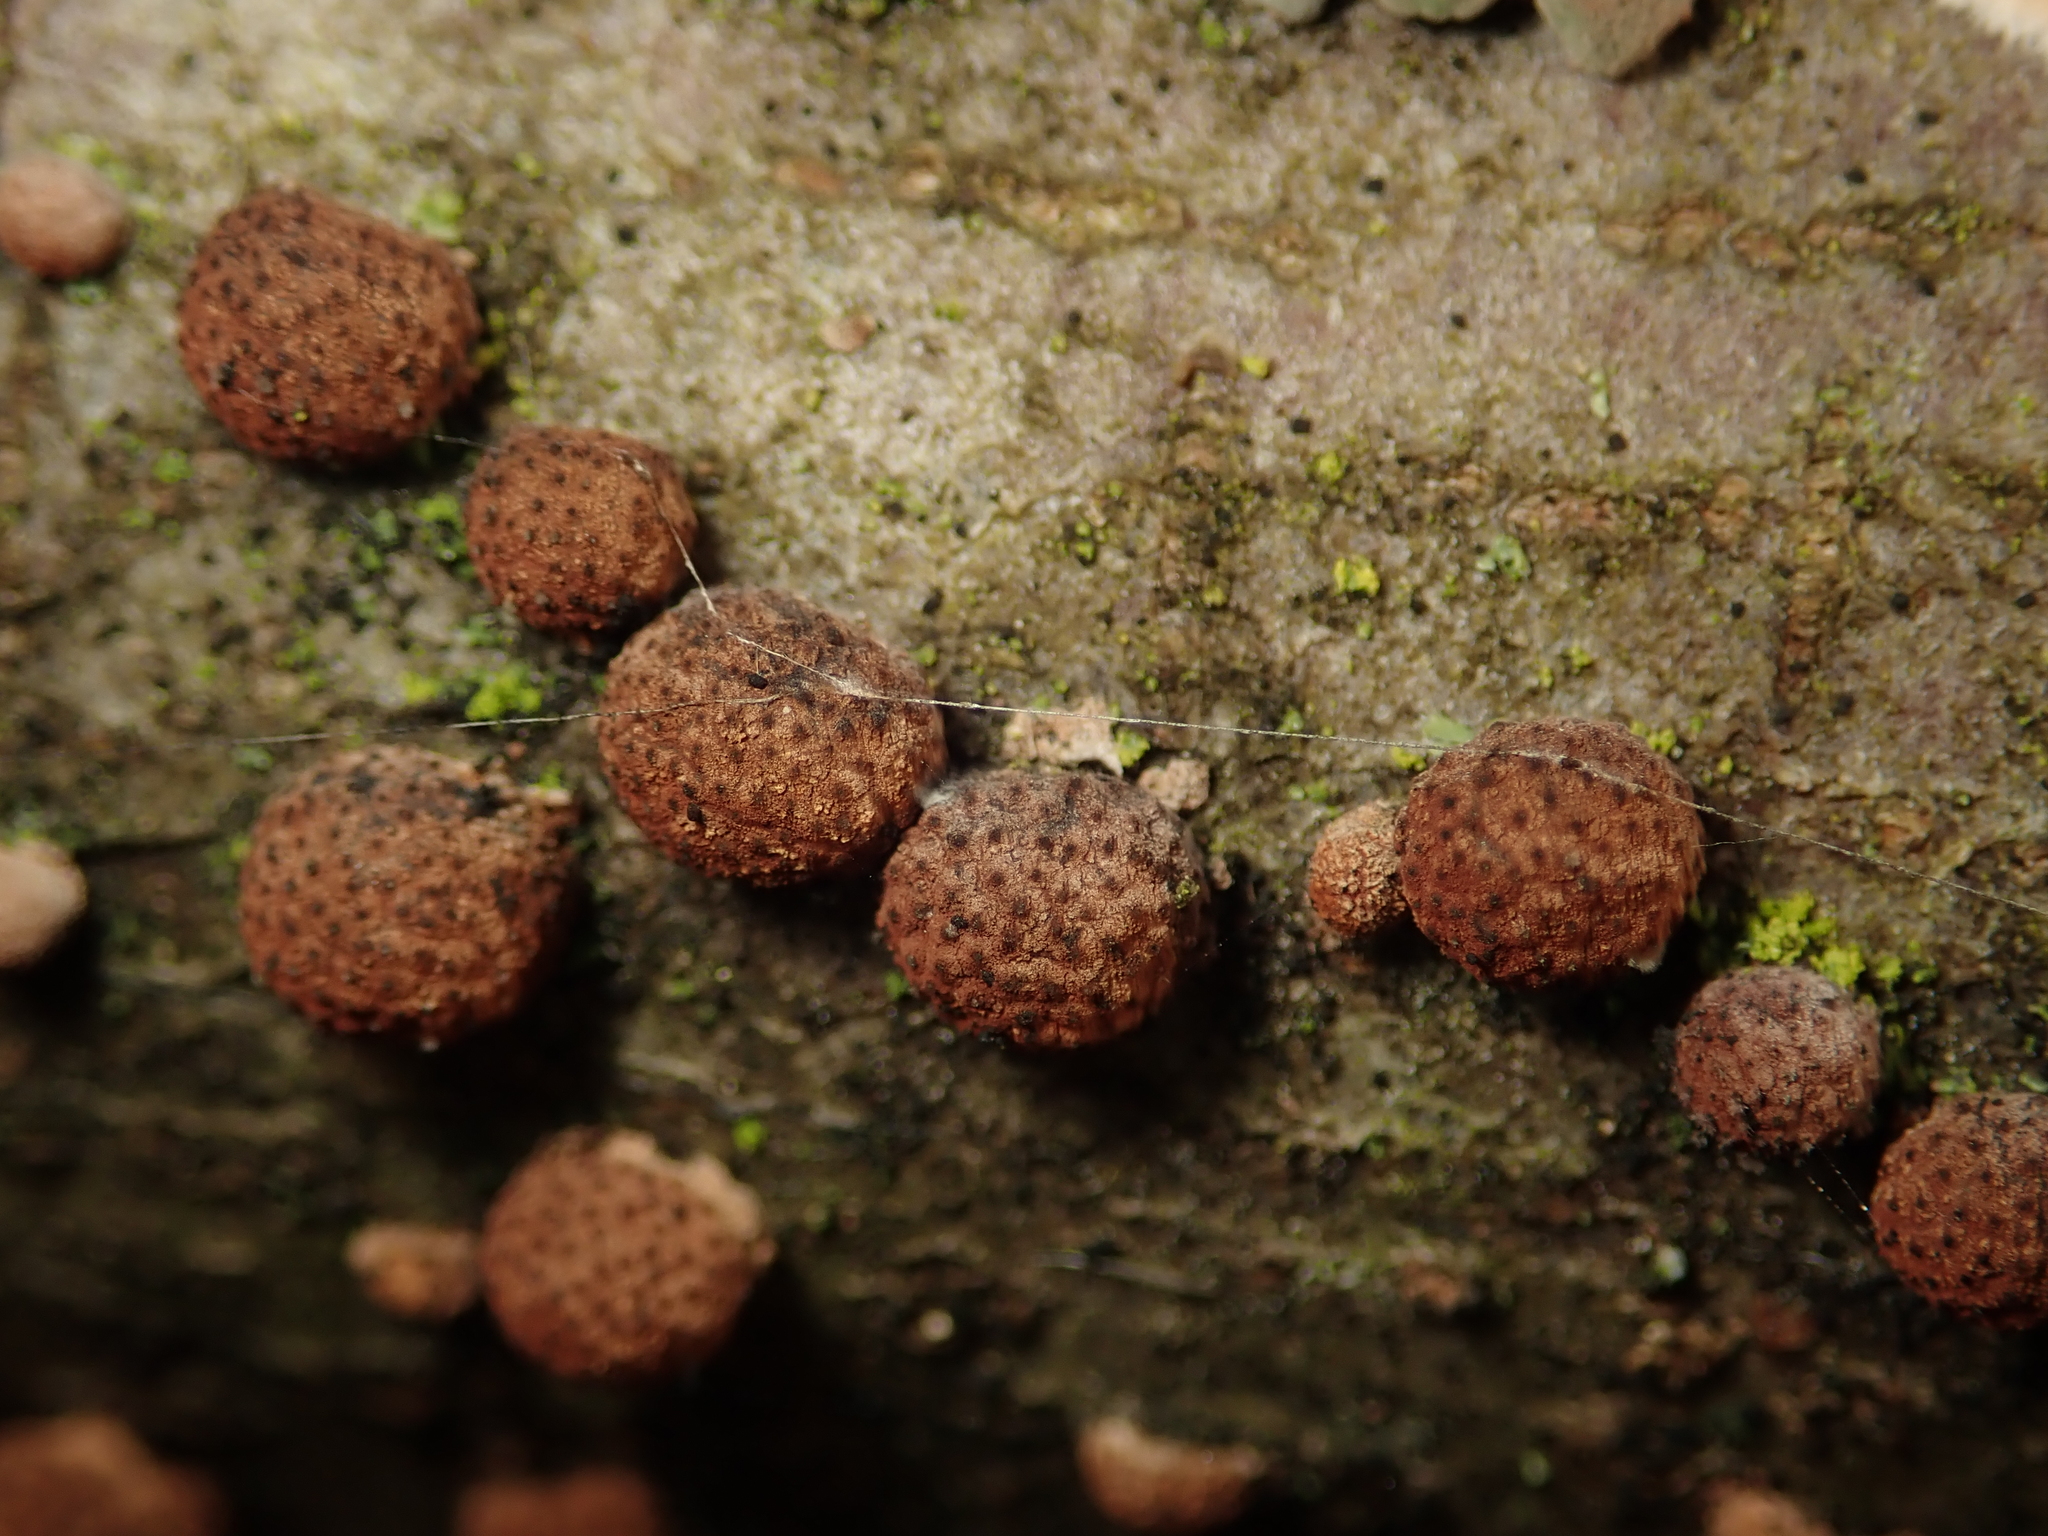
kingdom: Fungi
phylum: Ascomycota
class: Sordariomycetes
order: Xylariales
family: Hypoxylaceae
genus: Hypoxylon
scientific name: Hypoxylon fragiforme
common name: Beech woodwart
